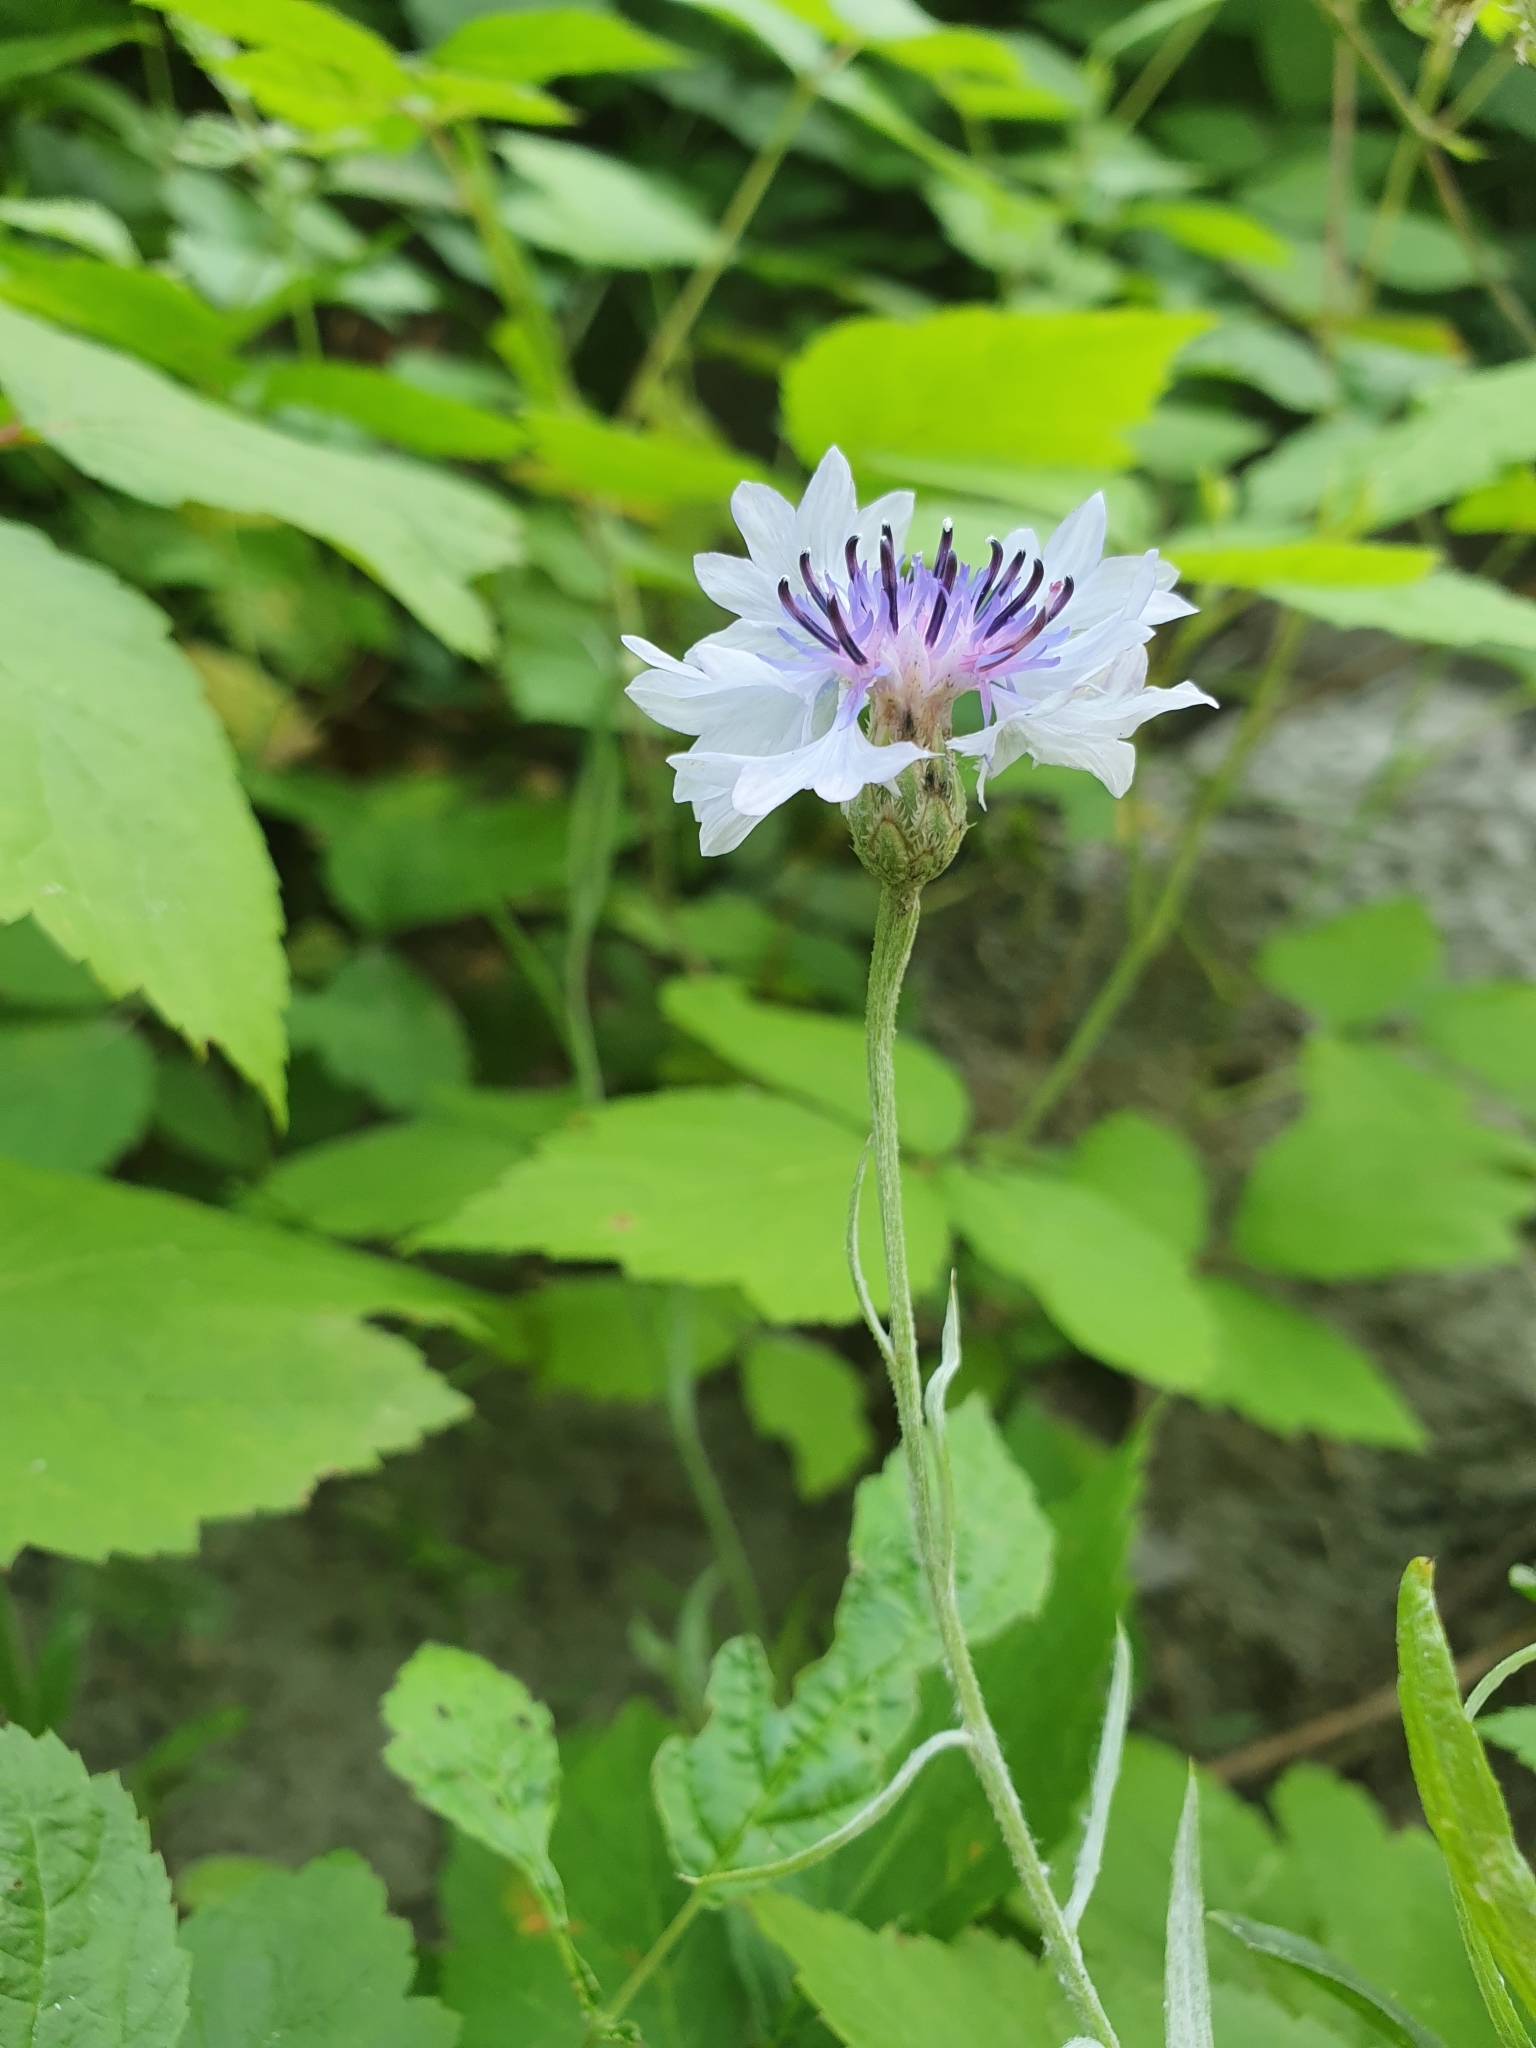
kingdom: Plantae
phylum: Tracheophyta
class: Magnoliopsida
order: Asterales
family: Asteraceae
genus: Centaurea
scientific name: Centaurea cyanus
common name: Cornflower
